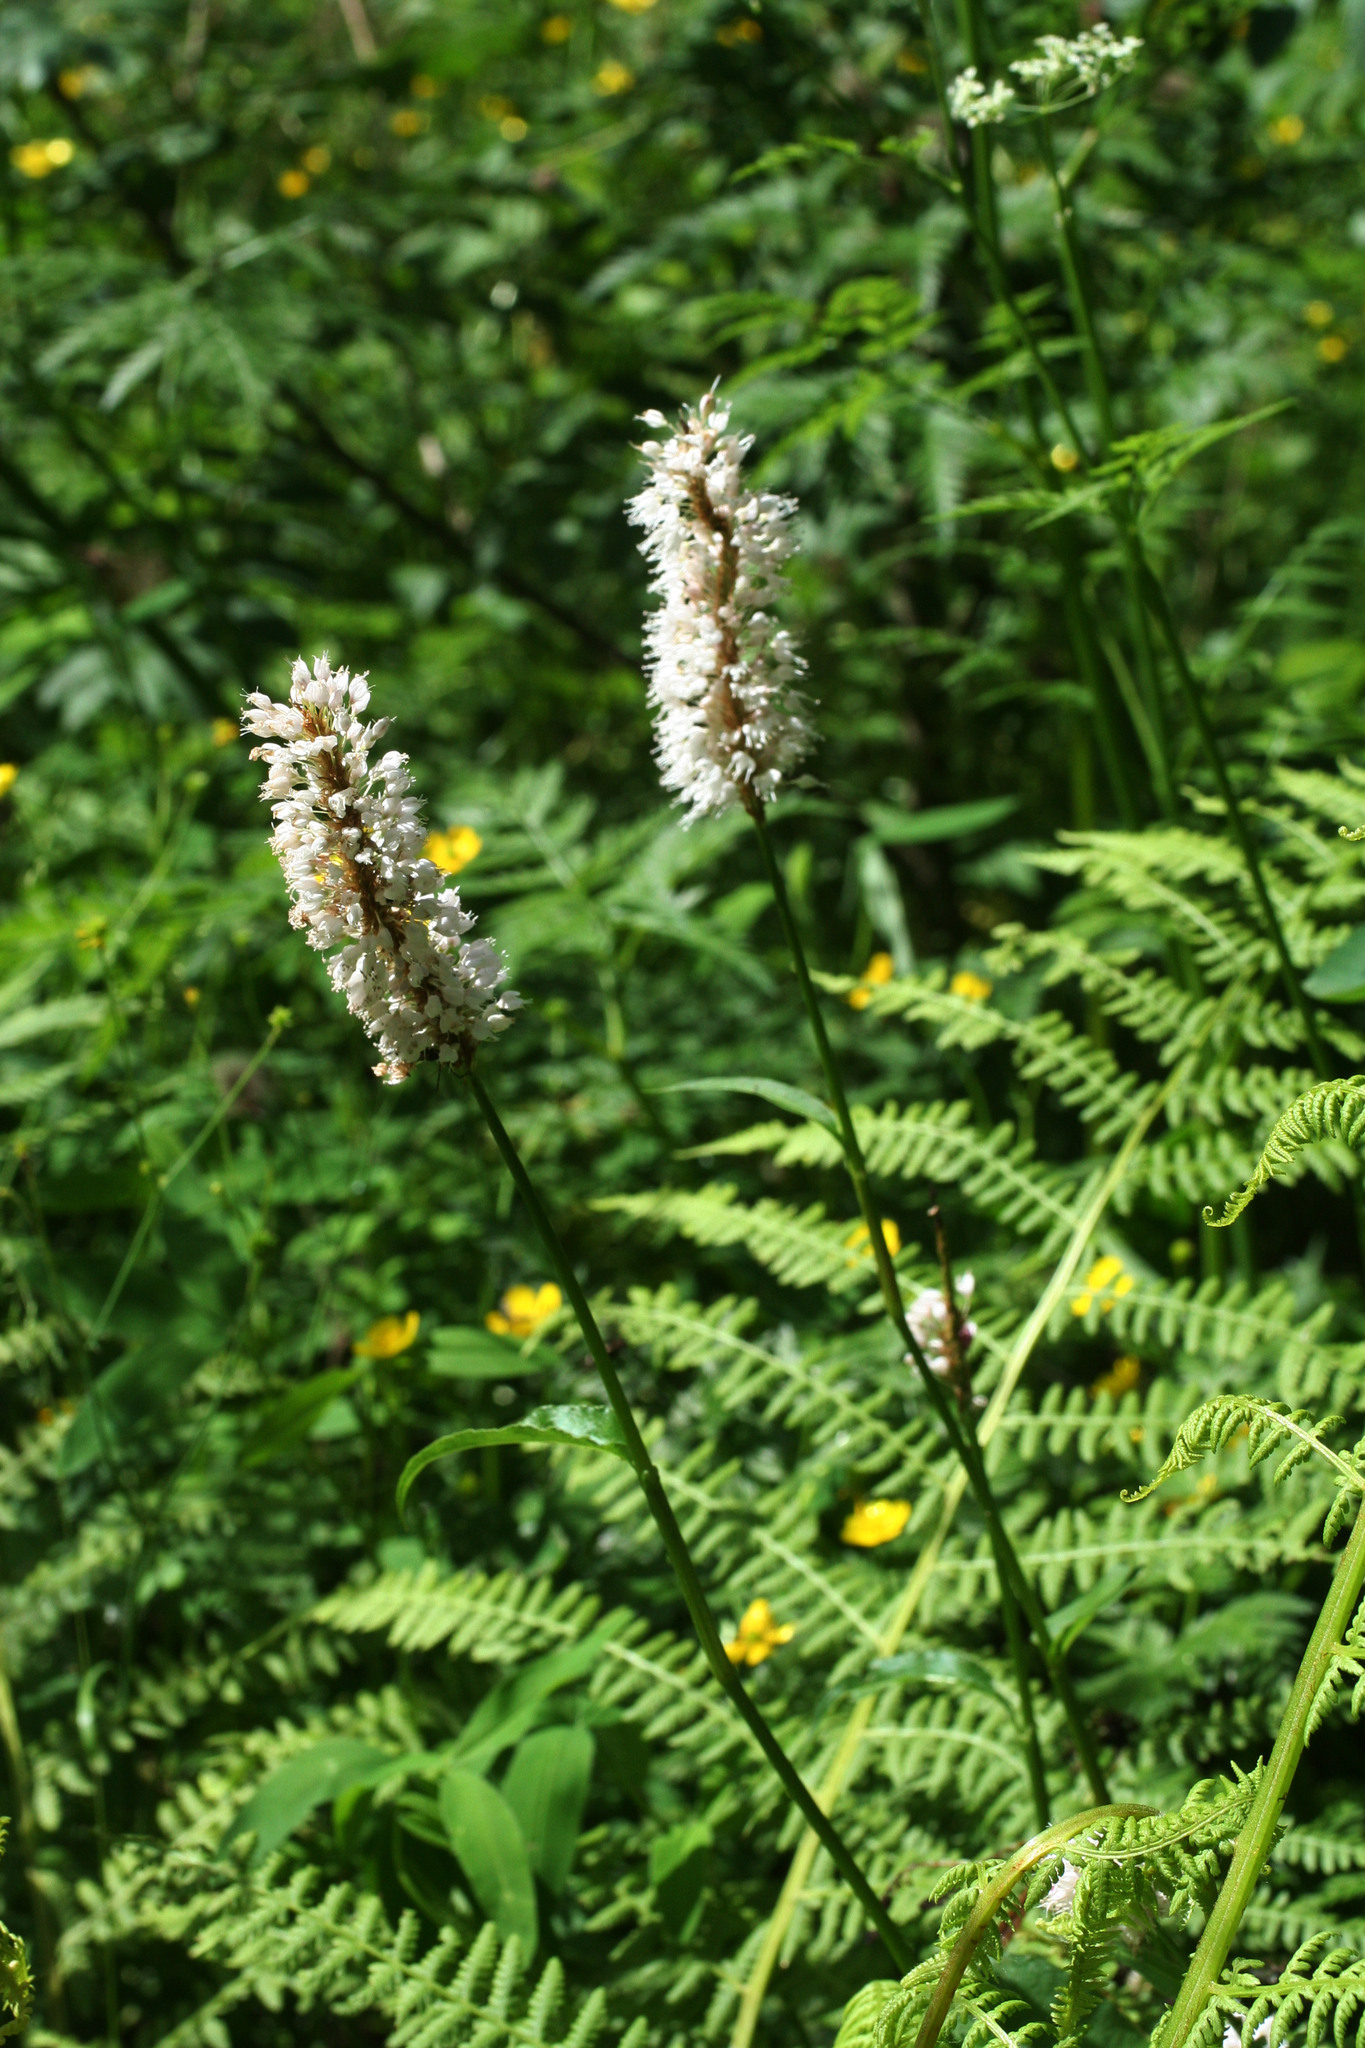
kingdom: Plantae
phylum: Tracheophyta
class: Magnoliopsida
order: Caryophyllales
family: Polygonaceae
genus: Bistorta
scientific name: Bistorta officinalis
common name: Common bistort
